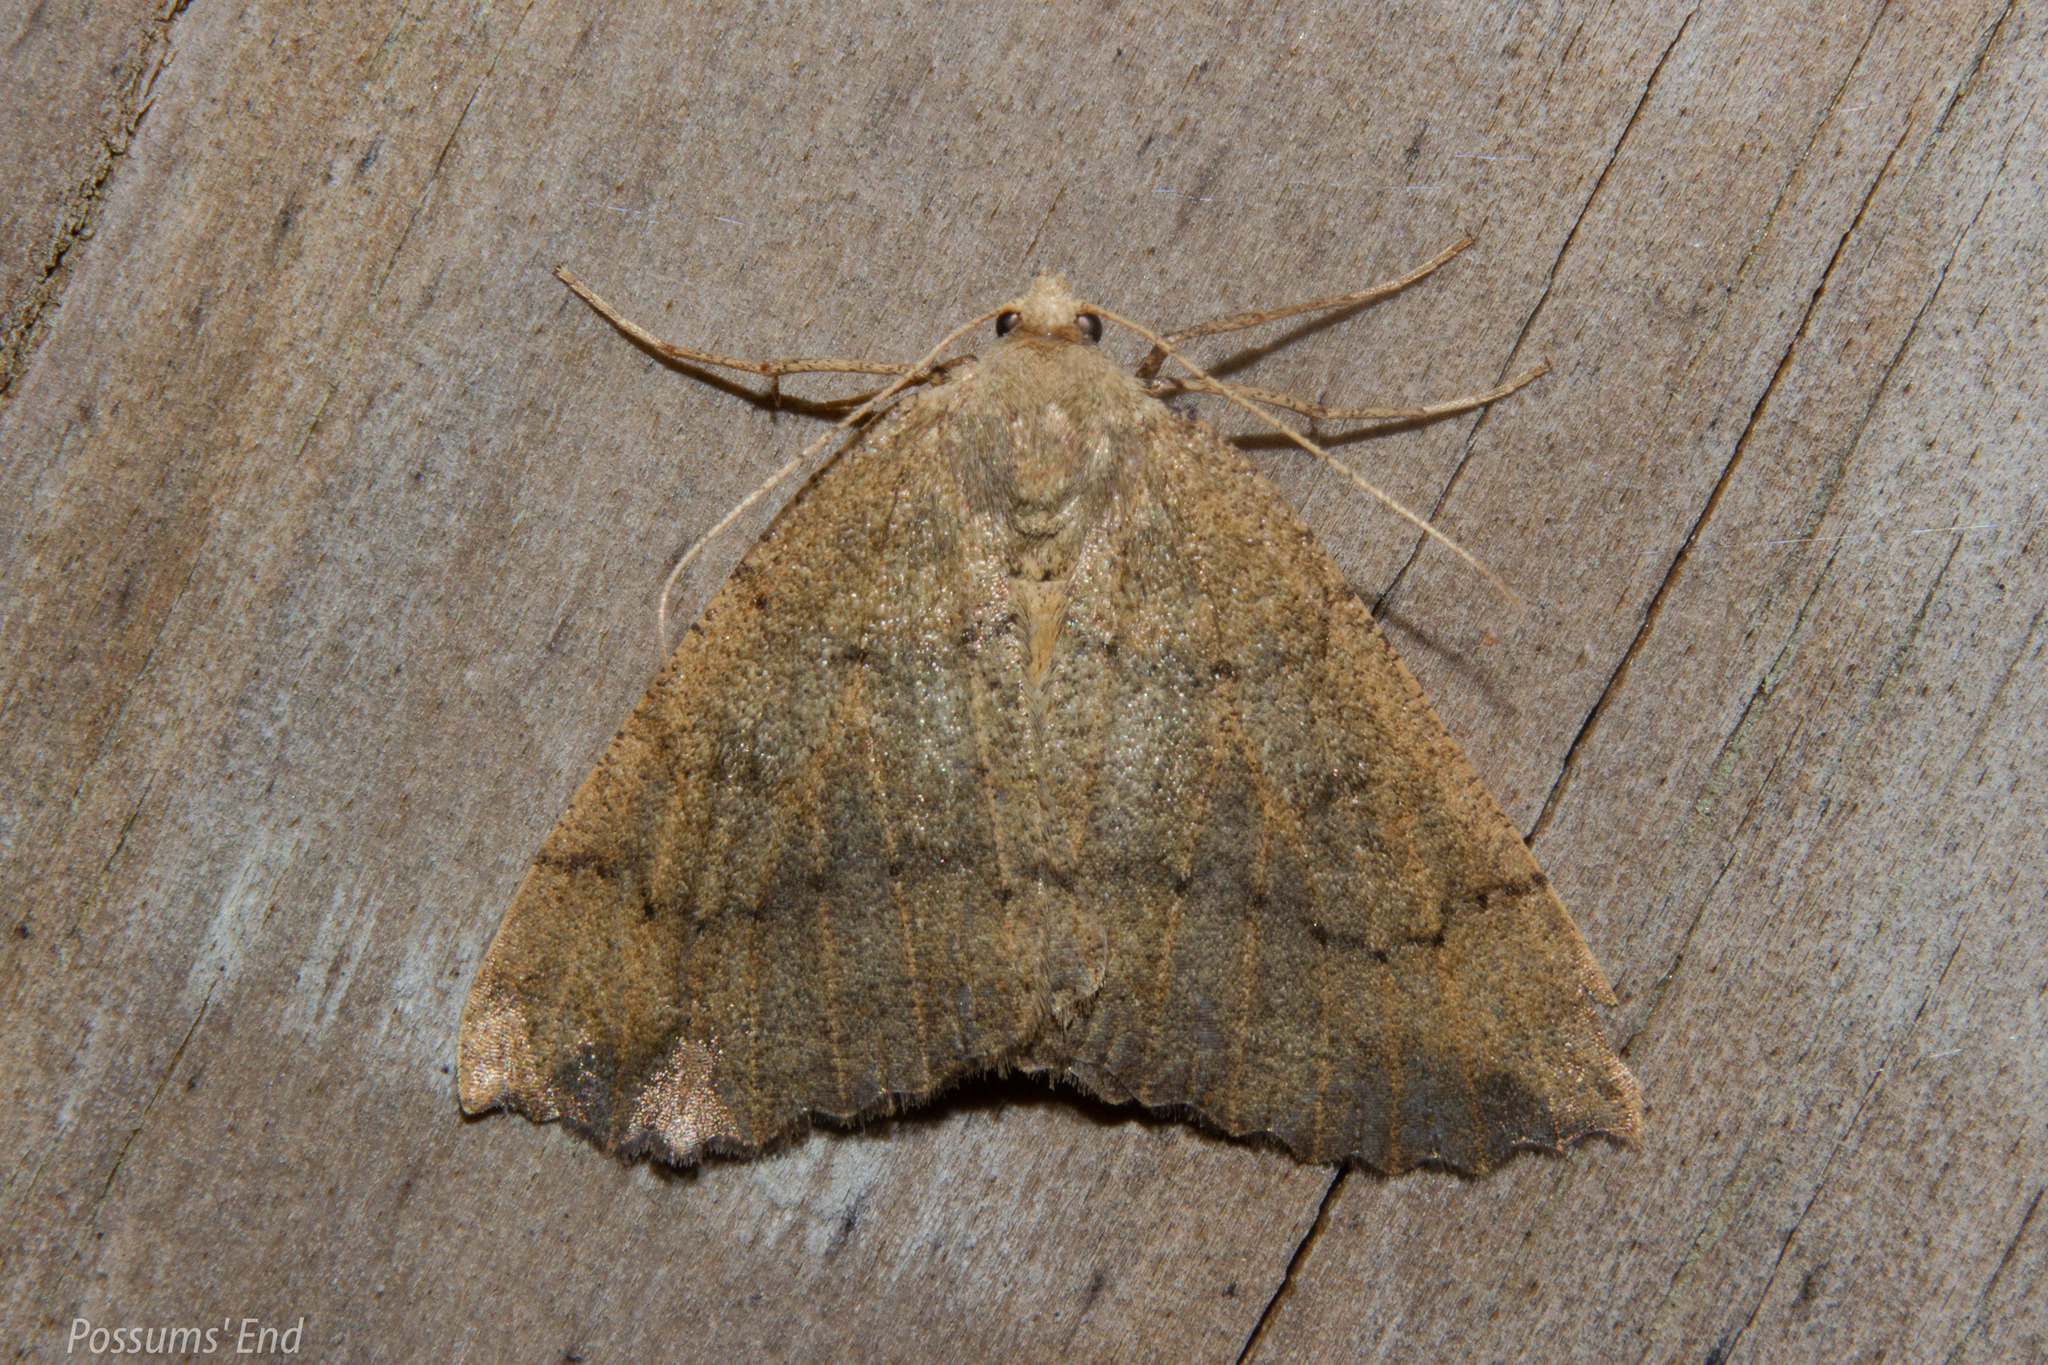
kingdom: Animalia
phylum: Arthropoda
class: Insecta
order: Lepidoptera
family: Geometridae
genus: Cleora
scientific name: Cleora scriptaria
